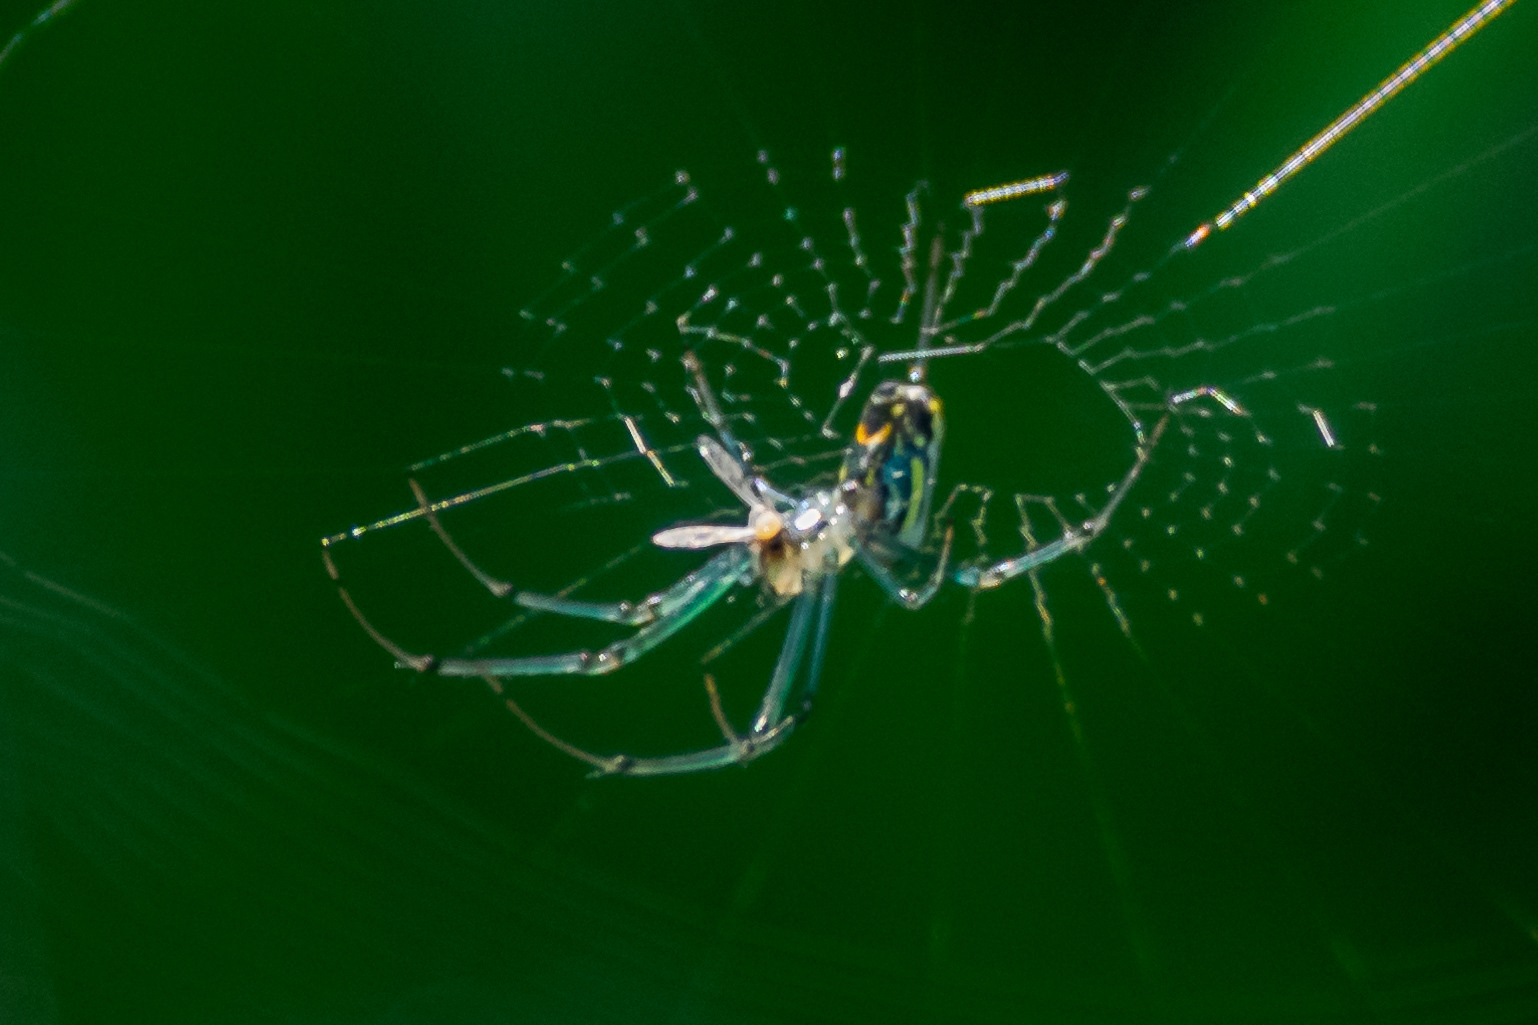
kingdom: Animalia
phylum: Arthropoda
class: Arachnida
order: Araneae
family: Tetragnathidae
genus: Leucauge
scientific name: Leucauge venusta
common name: Longjawed orb weavers
